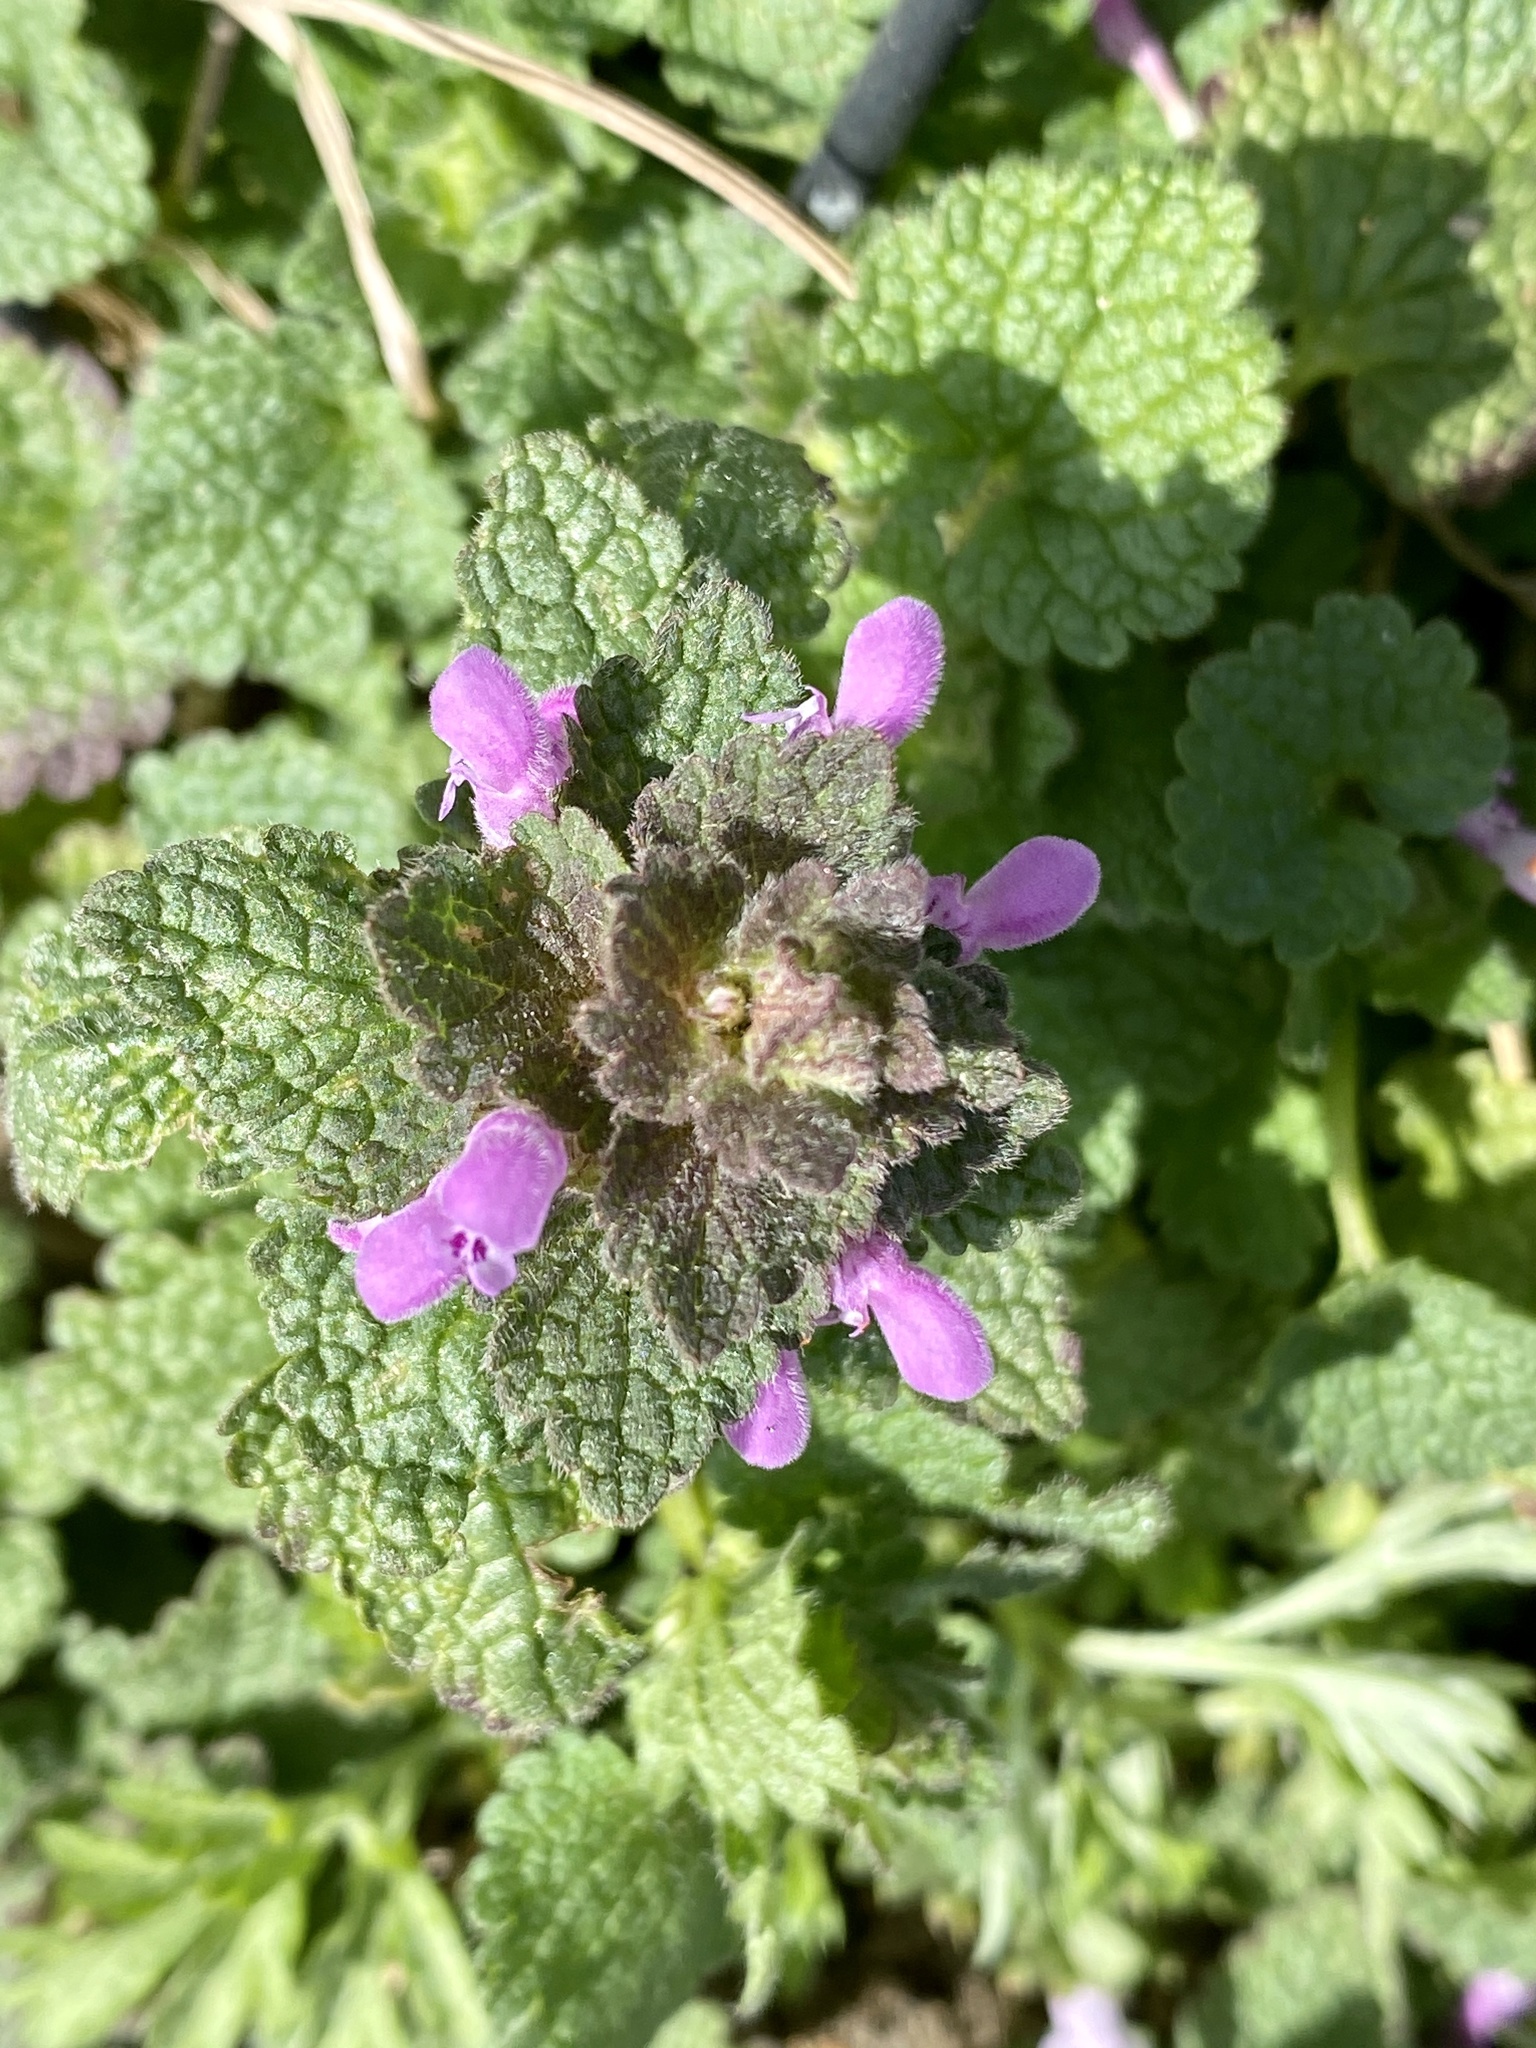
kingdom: Plantae
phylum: Tracheophyta
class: Magnoliopsida
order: Lamiales
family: Lamiaceae
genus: Lamium
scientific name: Lamium purpureum
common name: Red dead-nettle
